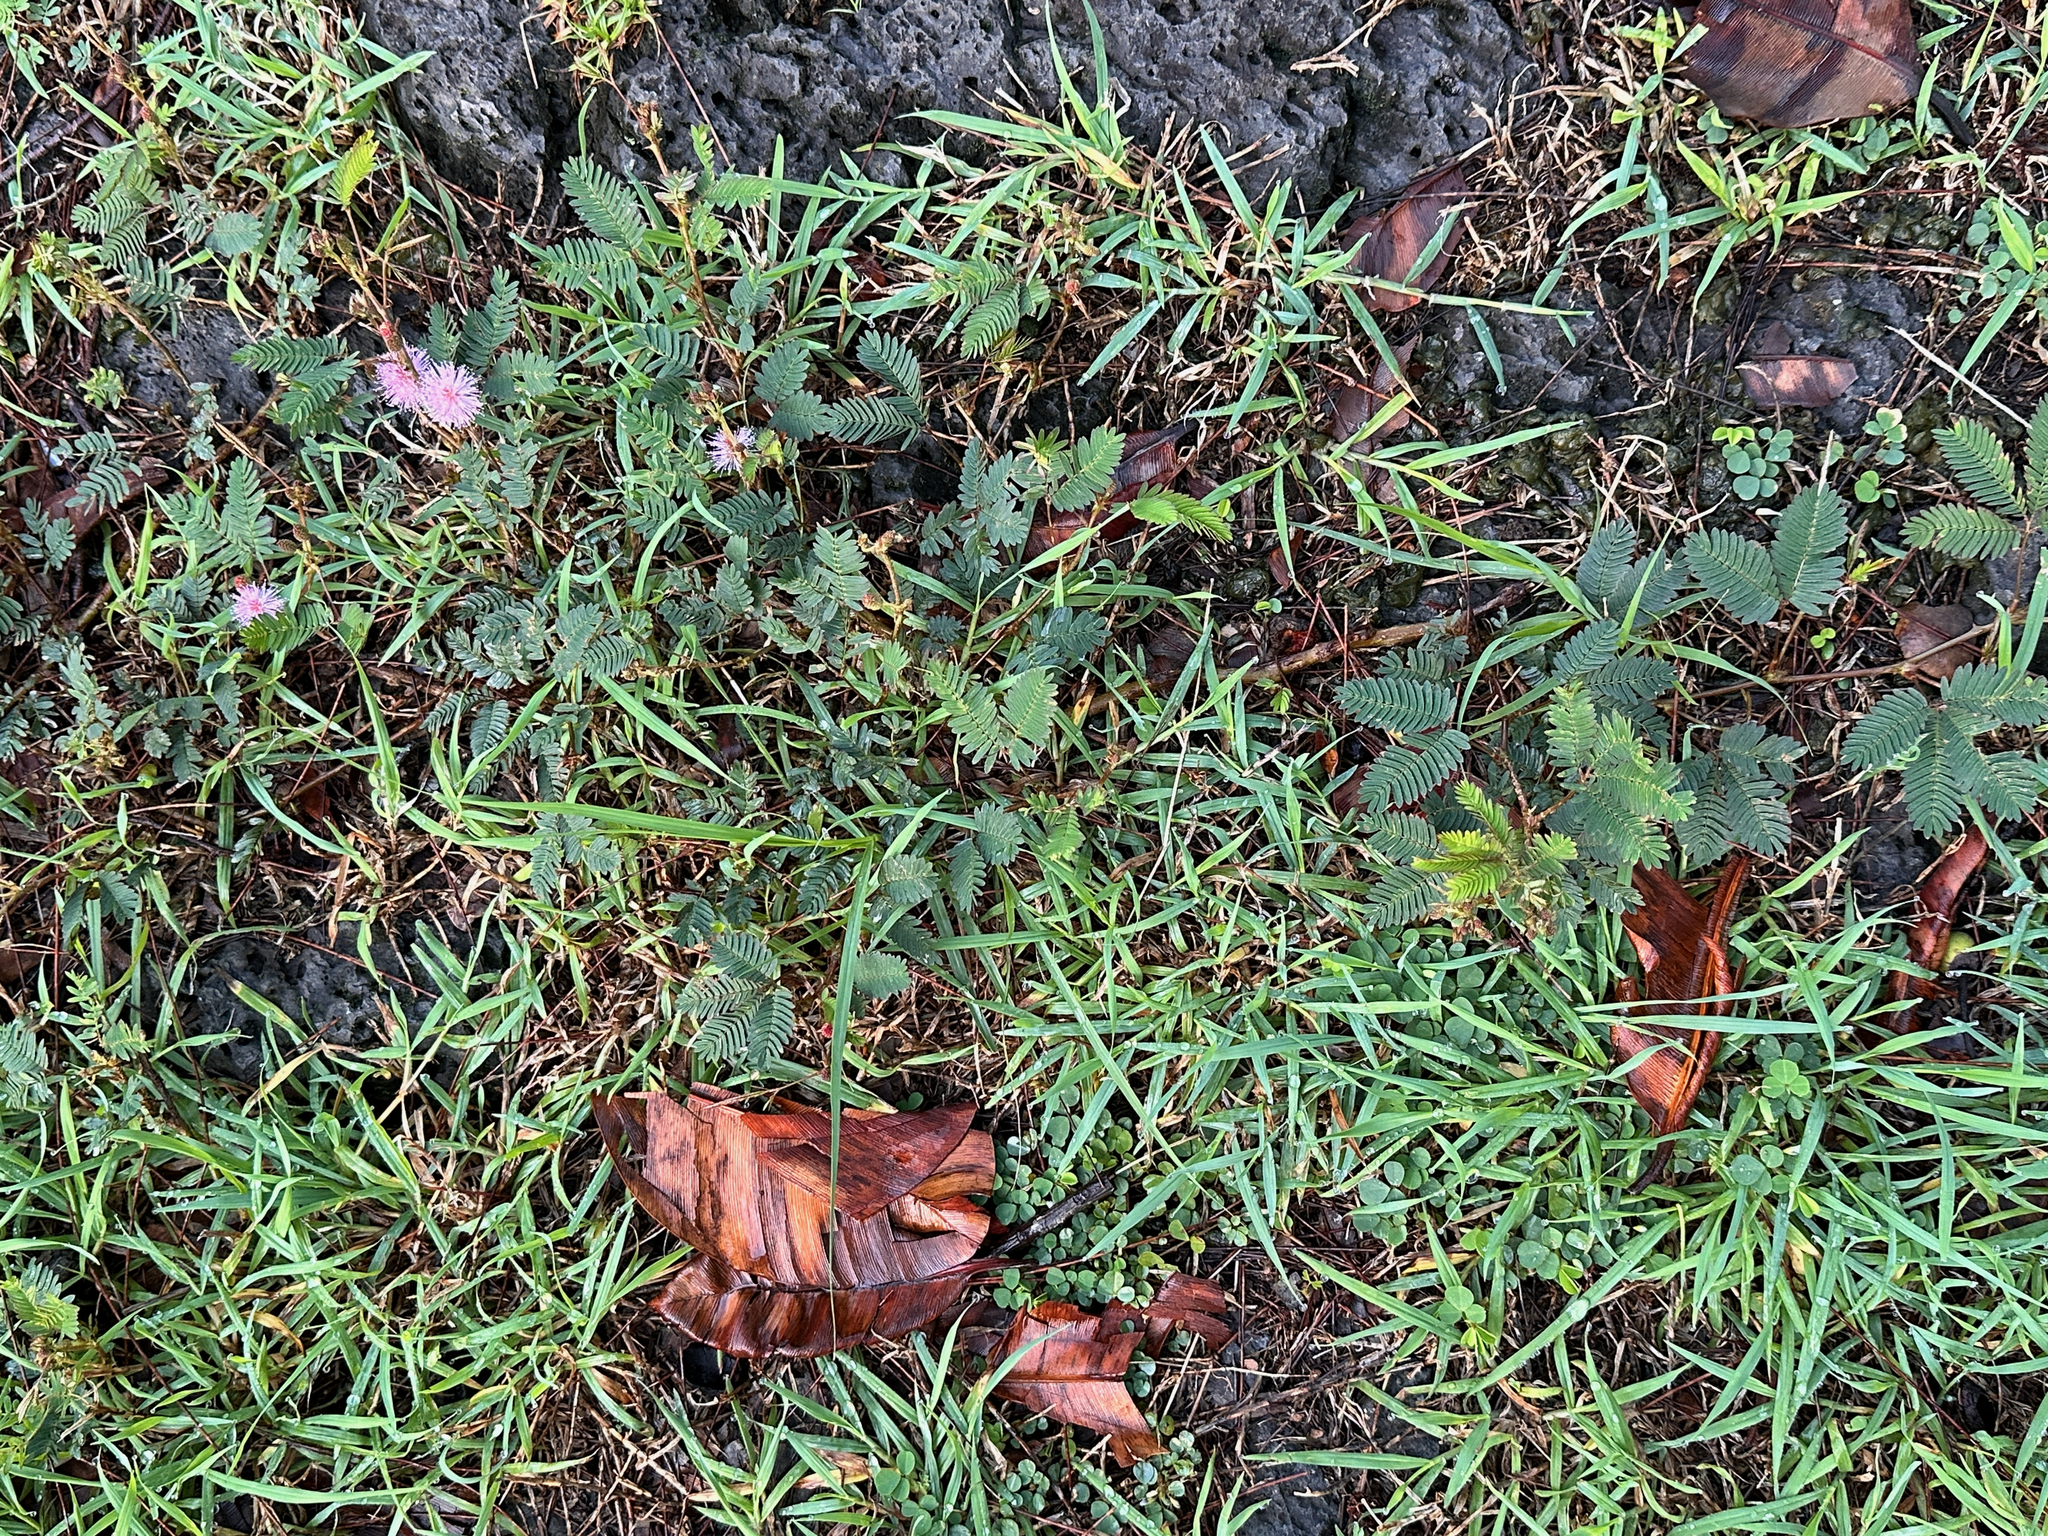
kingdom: Plantae
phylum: Tracheophyta
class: Magnoliopsida
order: Fabales
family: Fabaceae
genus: Mimosa
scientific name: Mimosa pudica
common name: Sensitive plant
